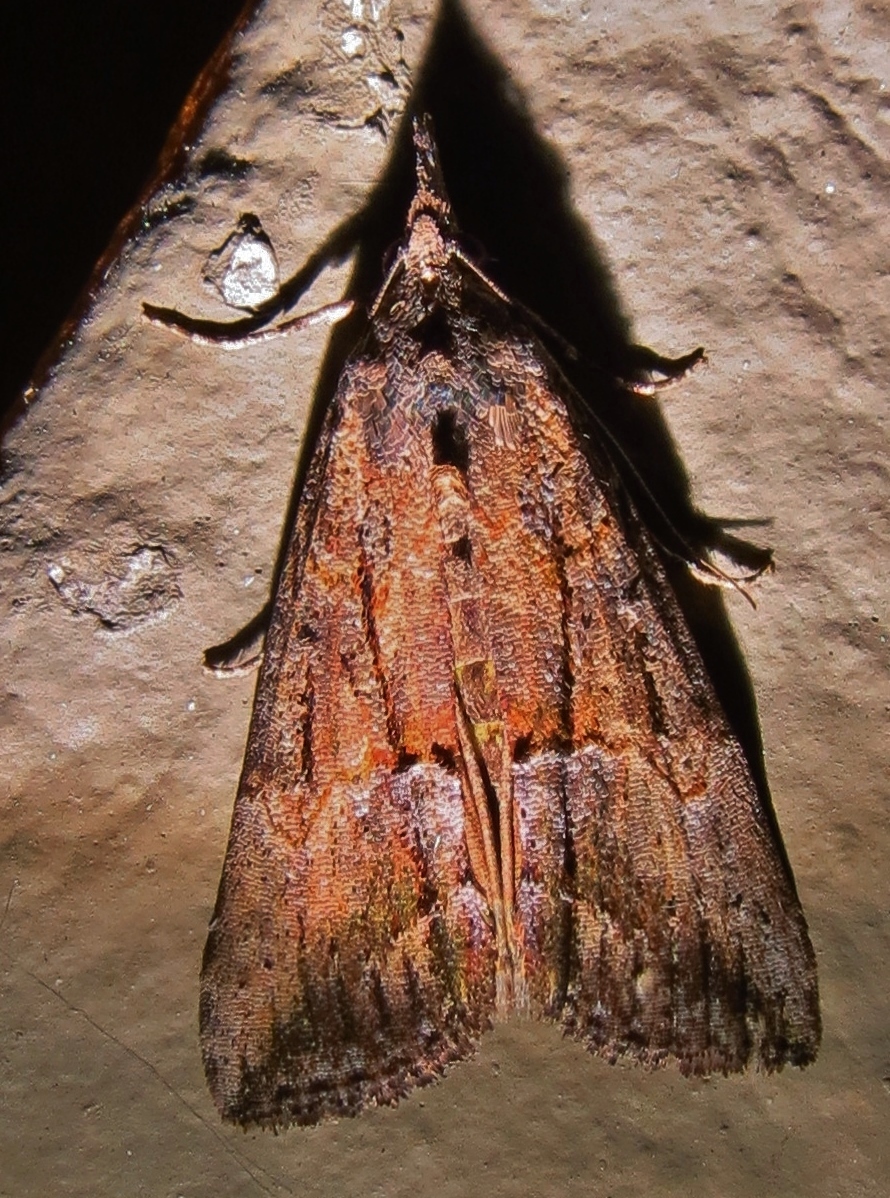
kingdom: Animalia
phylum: Arthropoda
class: Insecta
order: Lepidoptera
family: Erebidae
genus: Hypena
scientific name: Hypena scabra
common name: Green cloverworm
